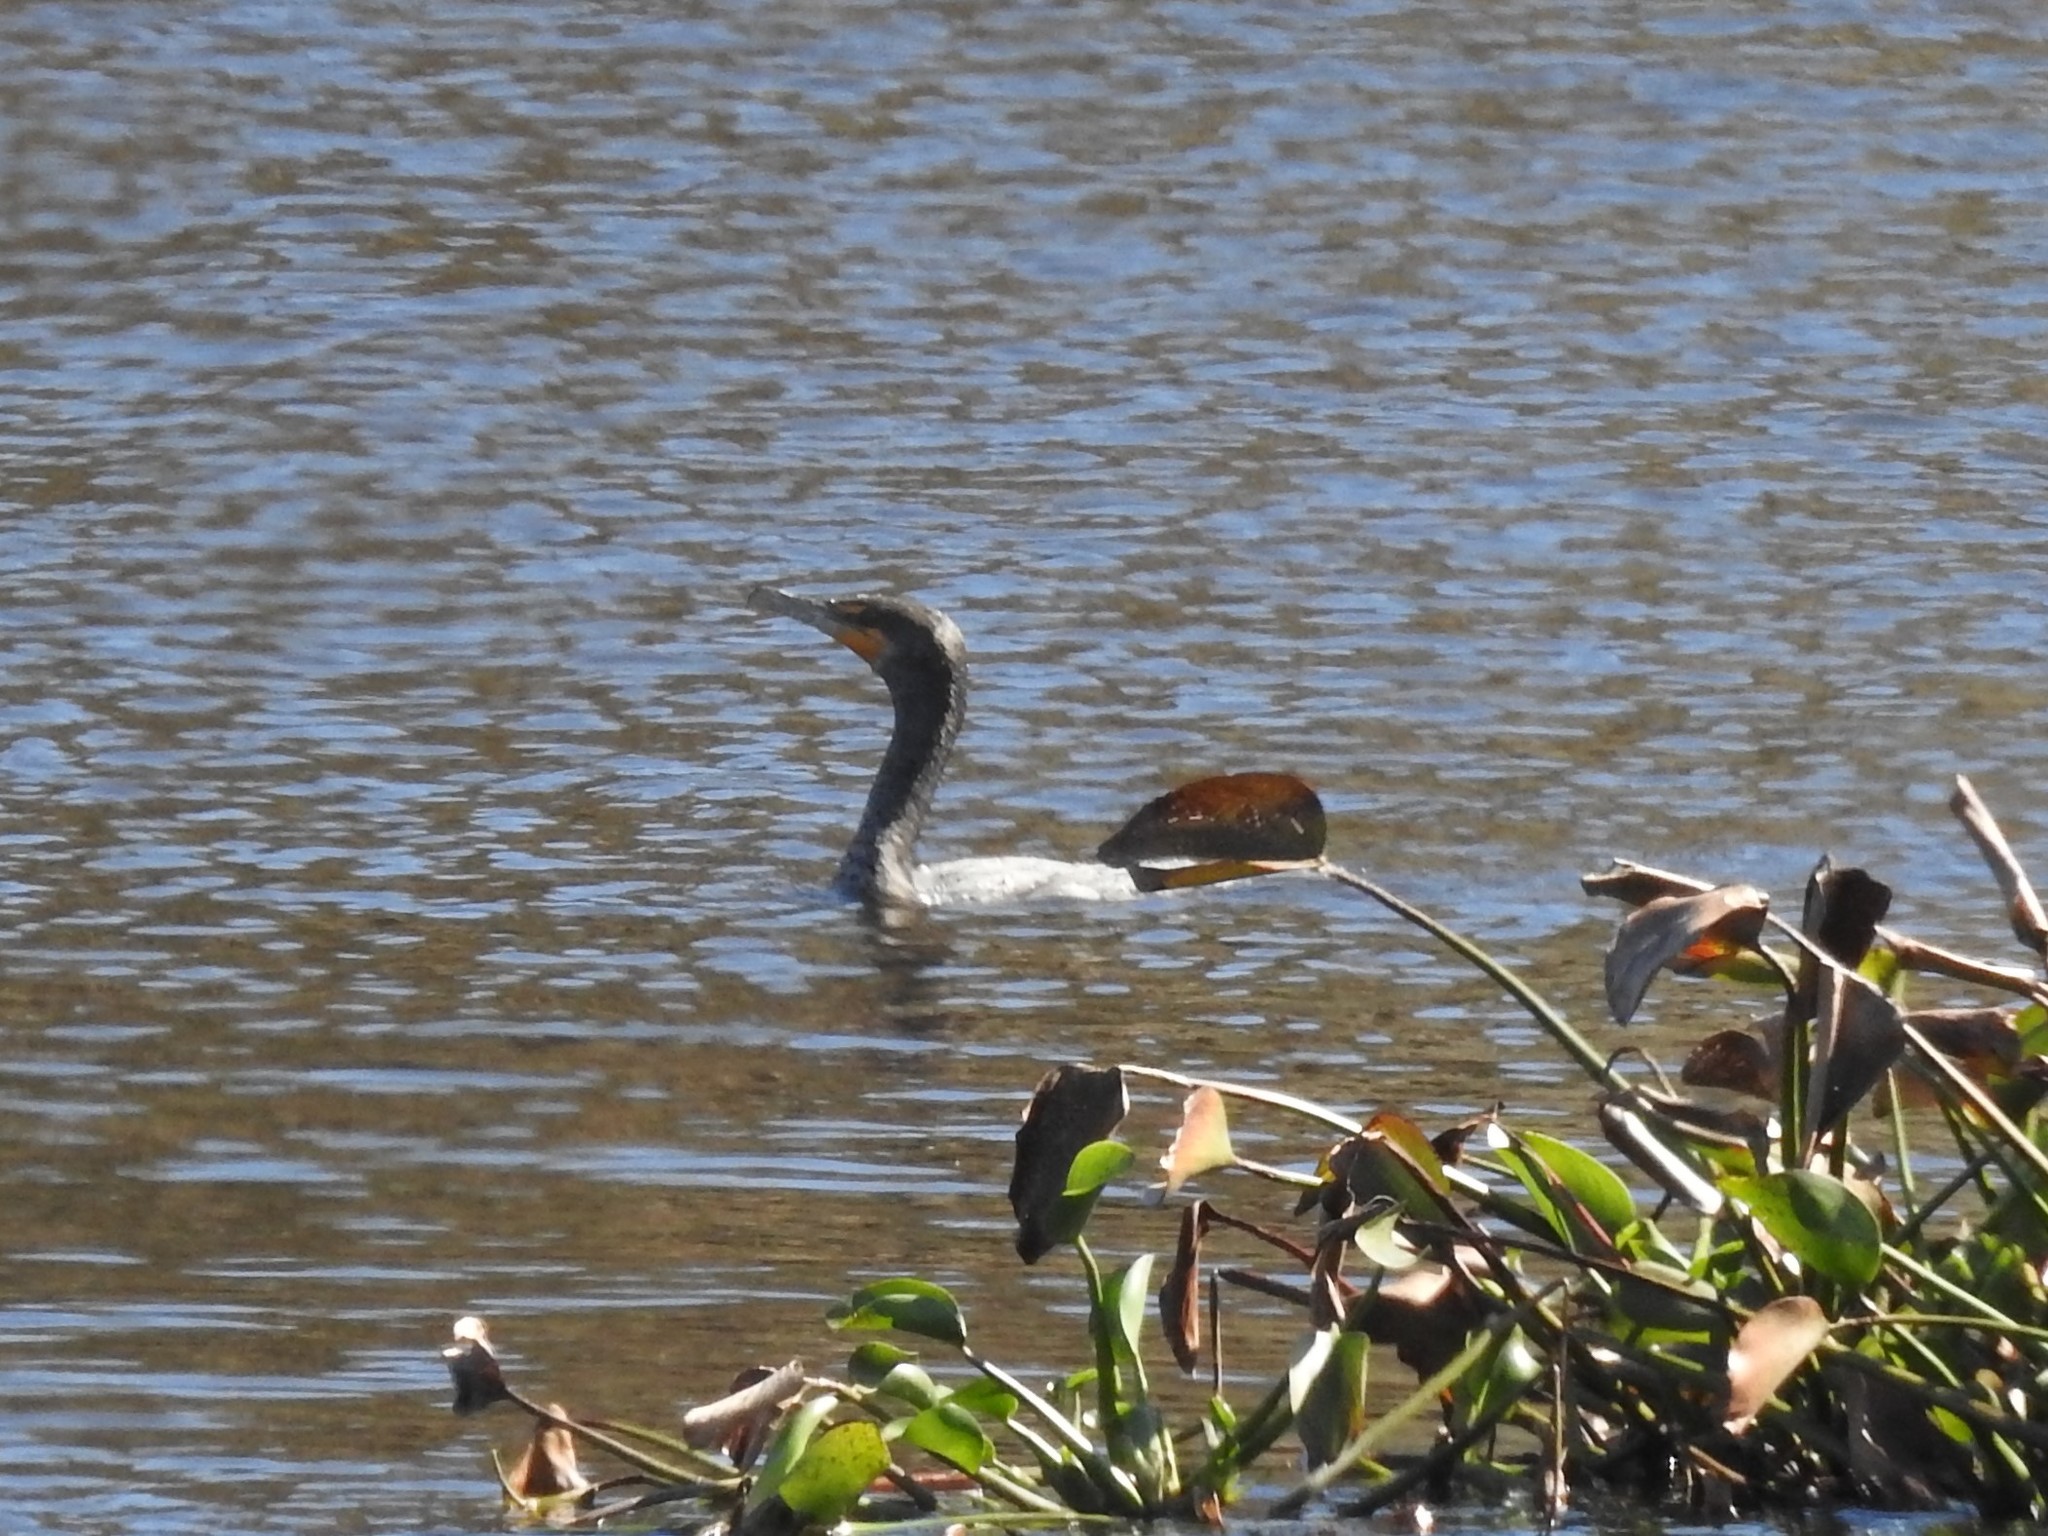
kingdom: Animalia
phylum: Chordata
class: Aves
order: Suliformes
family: Phalacrocoracidae
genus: Phalacrocorax
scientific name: Phalacrocorax auritus
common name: Double-crested cormorant
